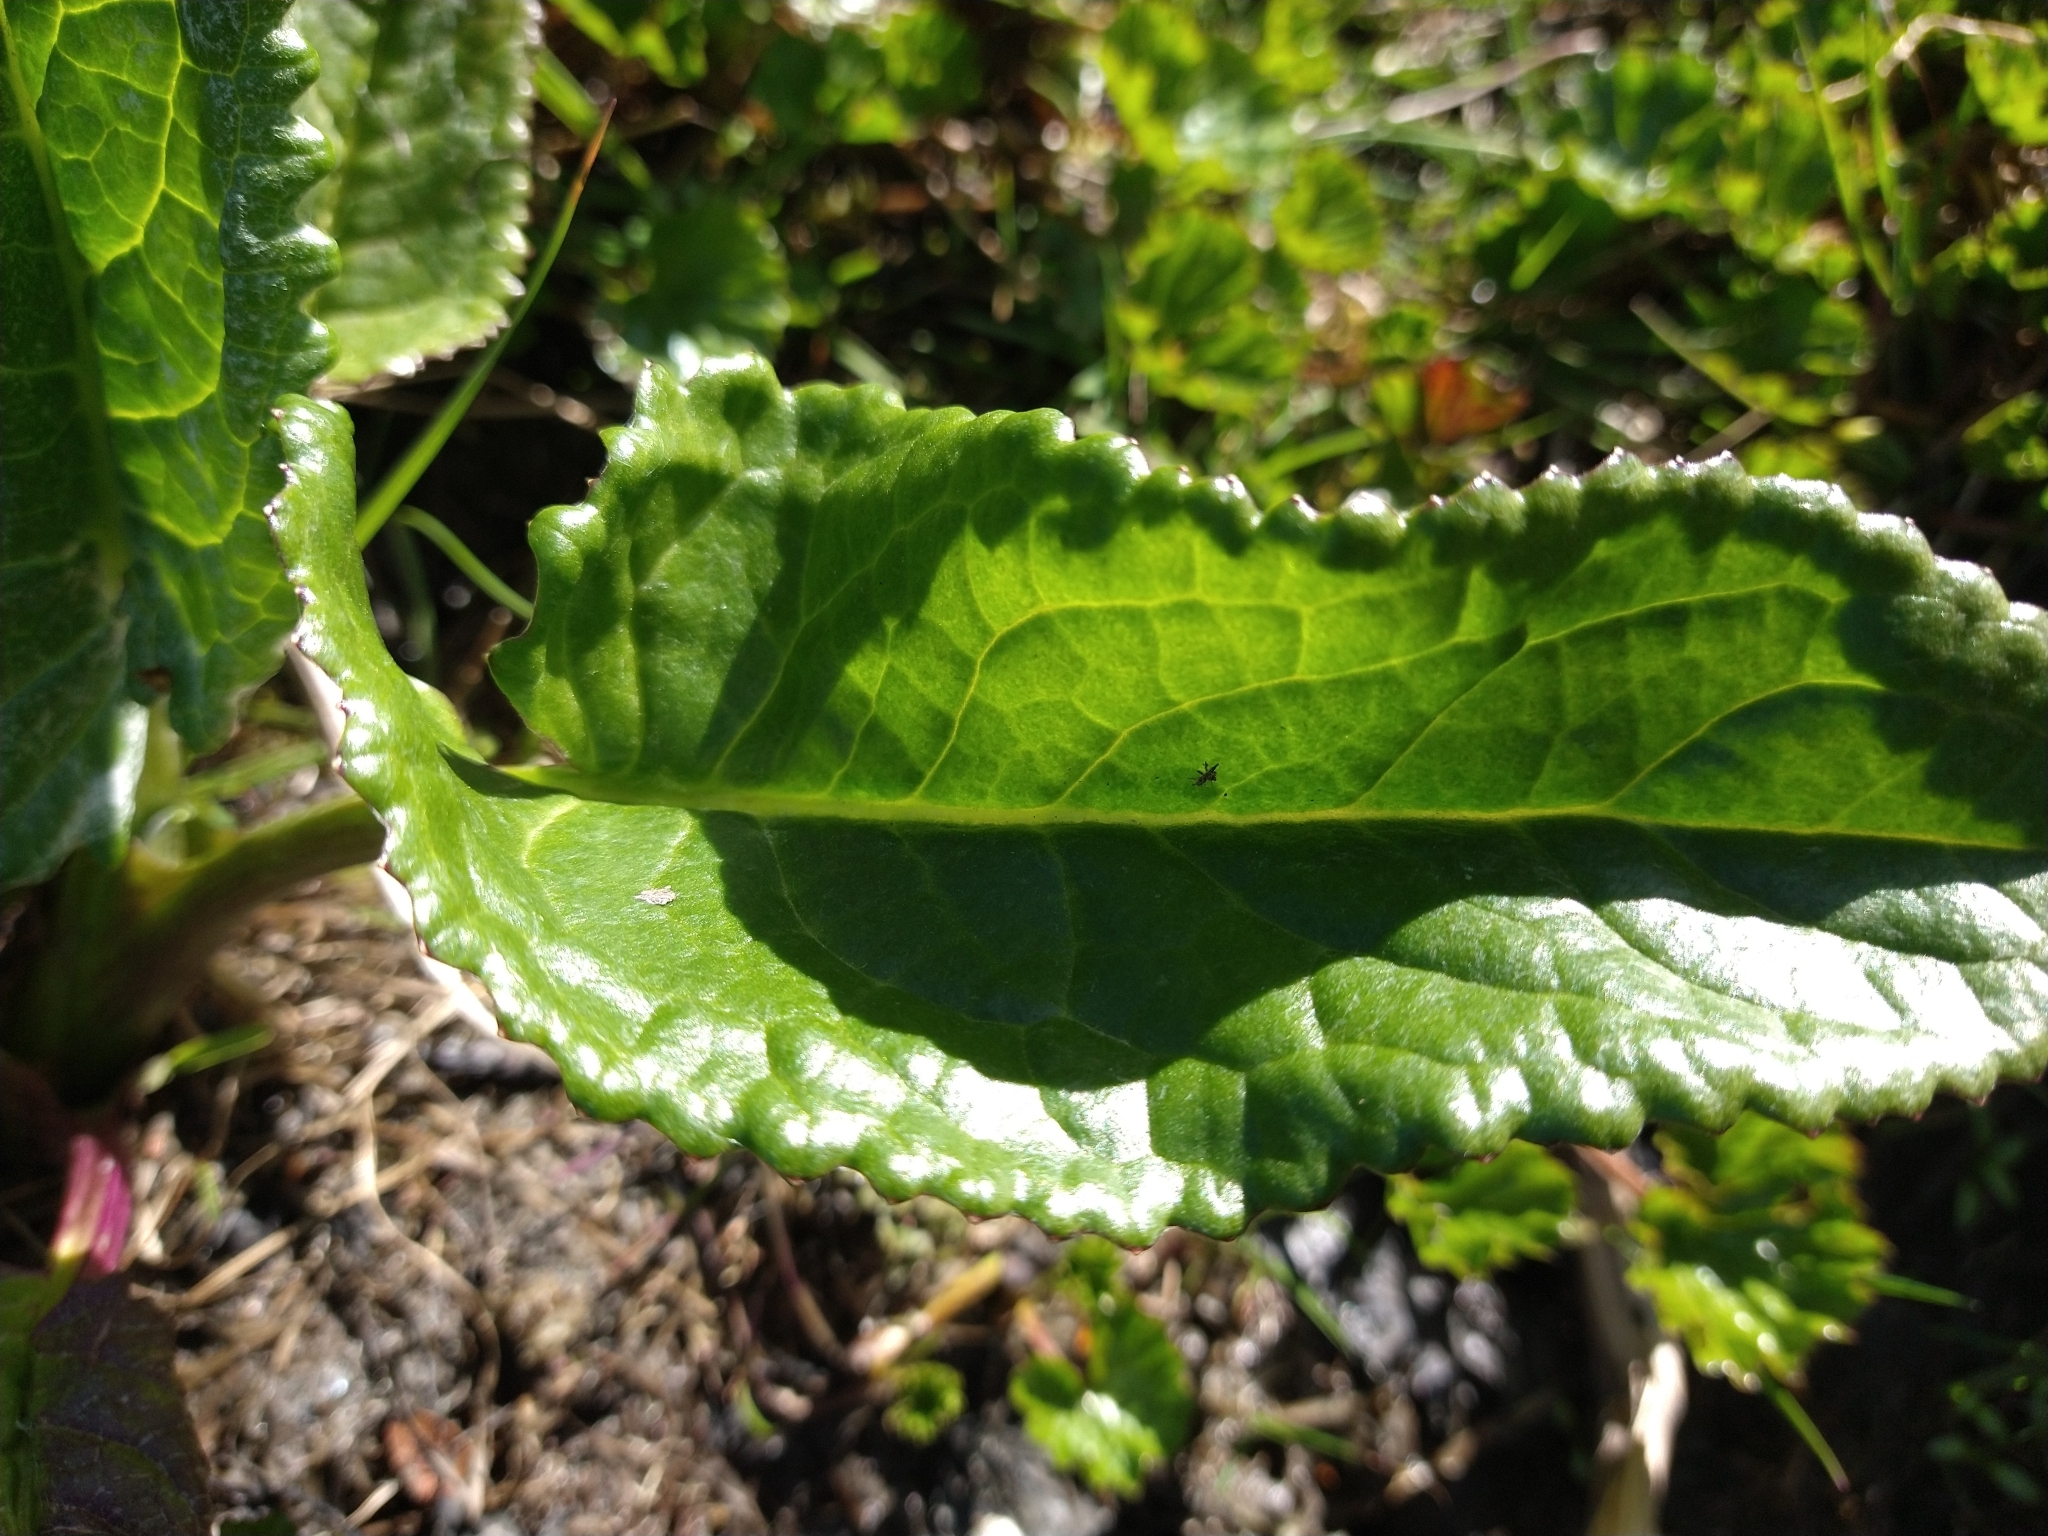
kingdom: Plantae
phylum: Tracheophyta
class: Magnoliopsida
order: Asterales
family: Asteraceae
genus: Senecio
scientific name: Senecio smithii
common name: Magellan ragwort
